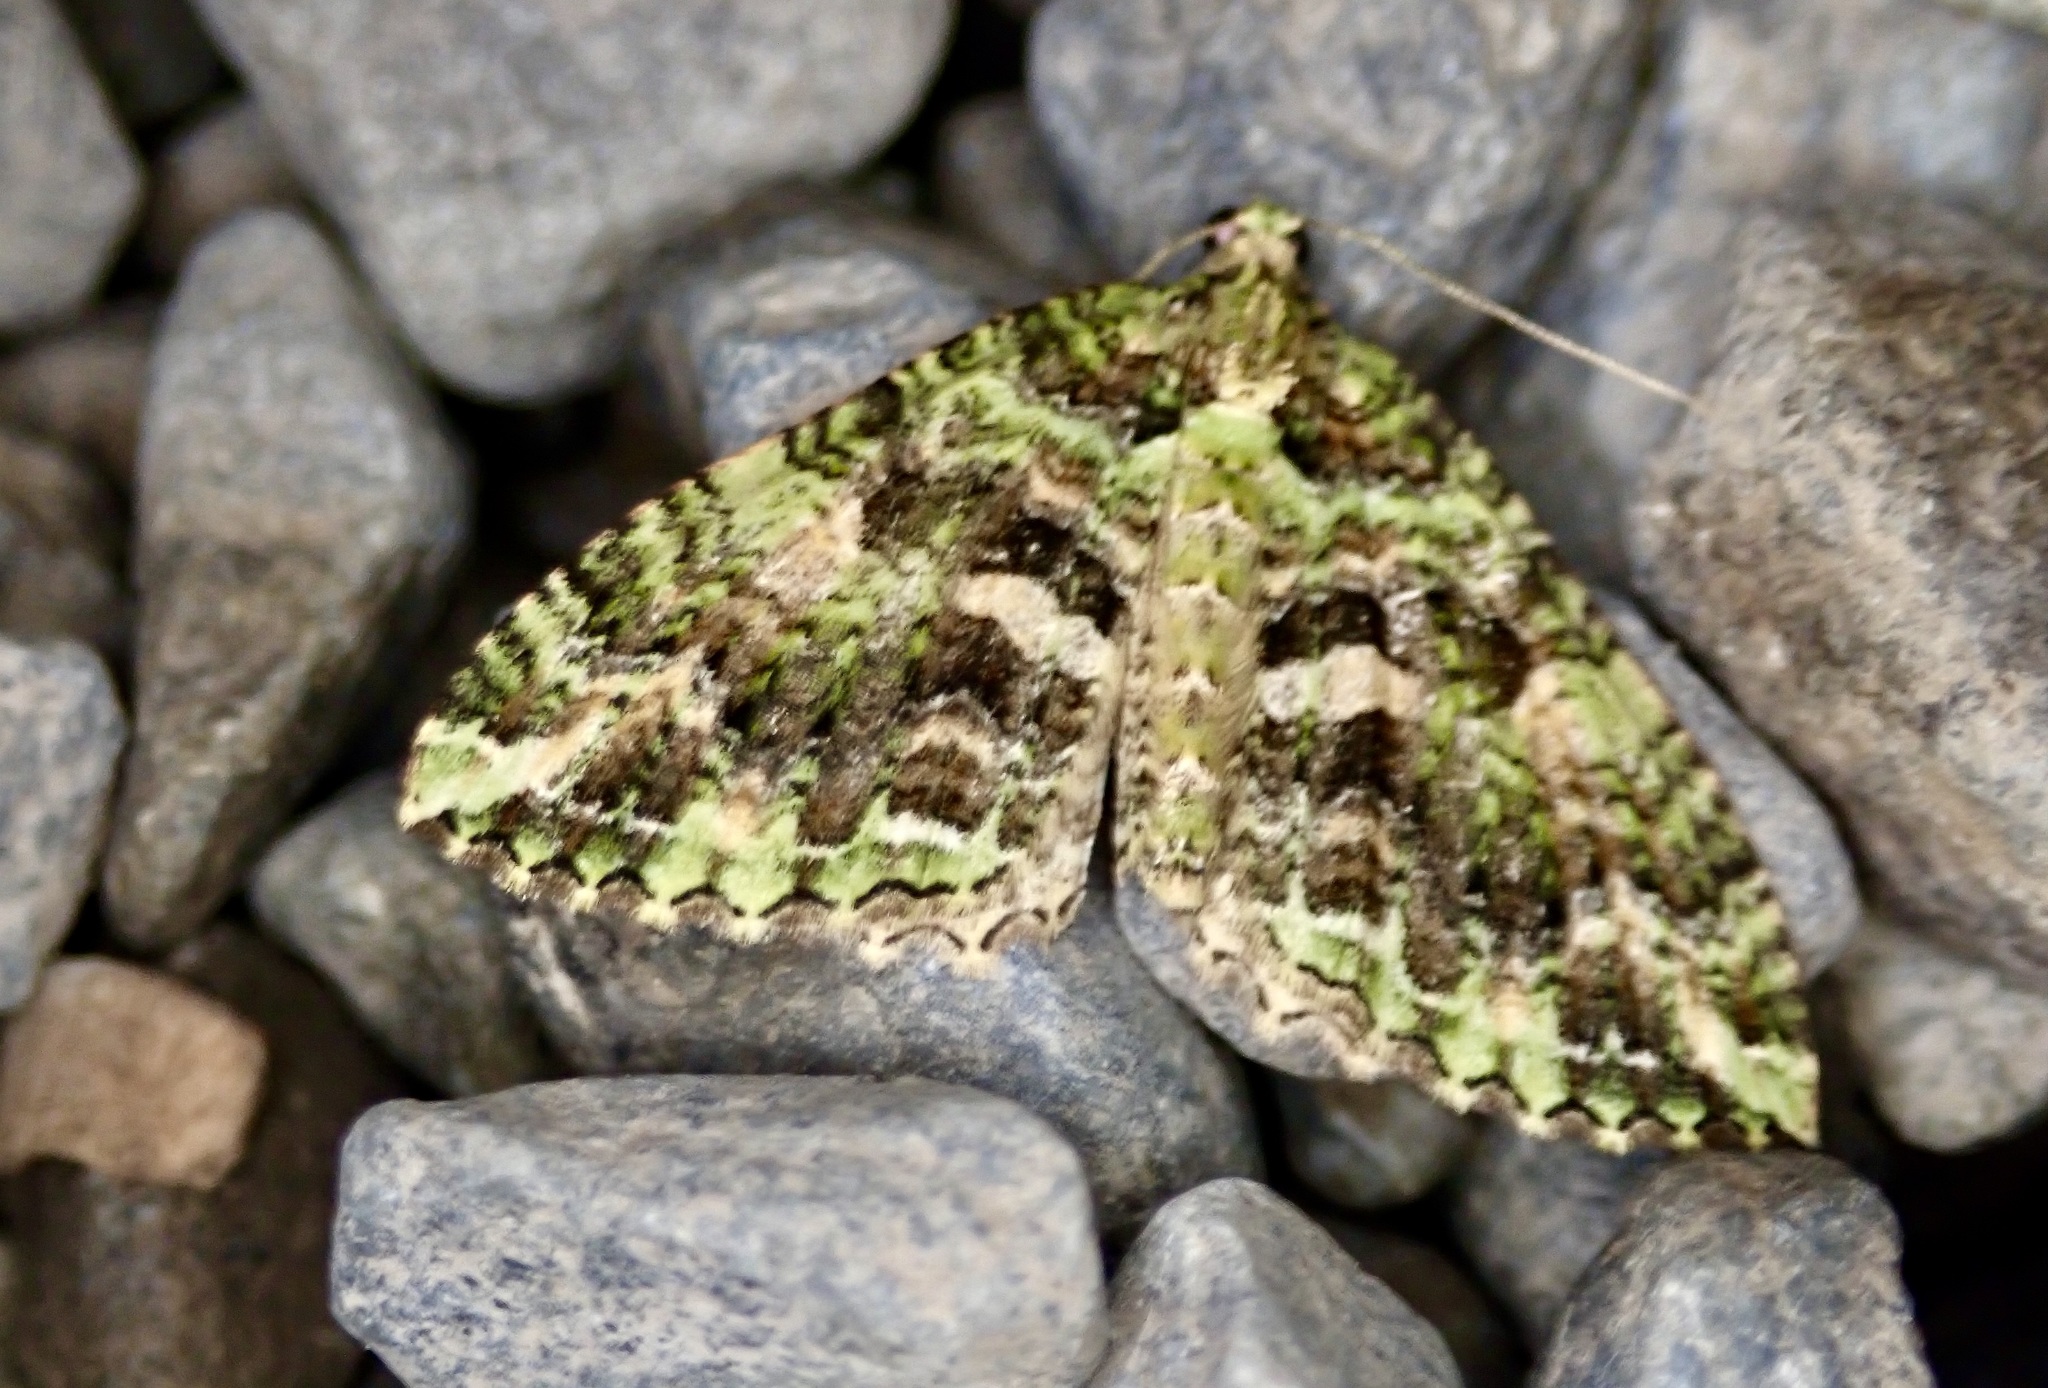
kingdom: Animalia
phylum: Arthropoda
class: Insecta
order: Lepidoptera
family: Geometridae
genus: Austrocidaria
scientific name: Austrocidaria similata
